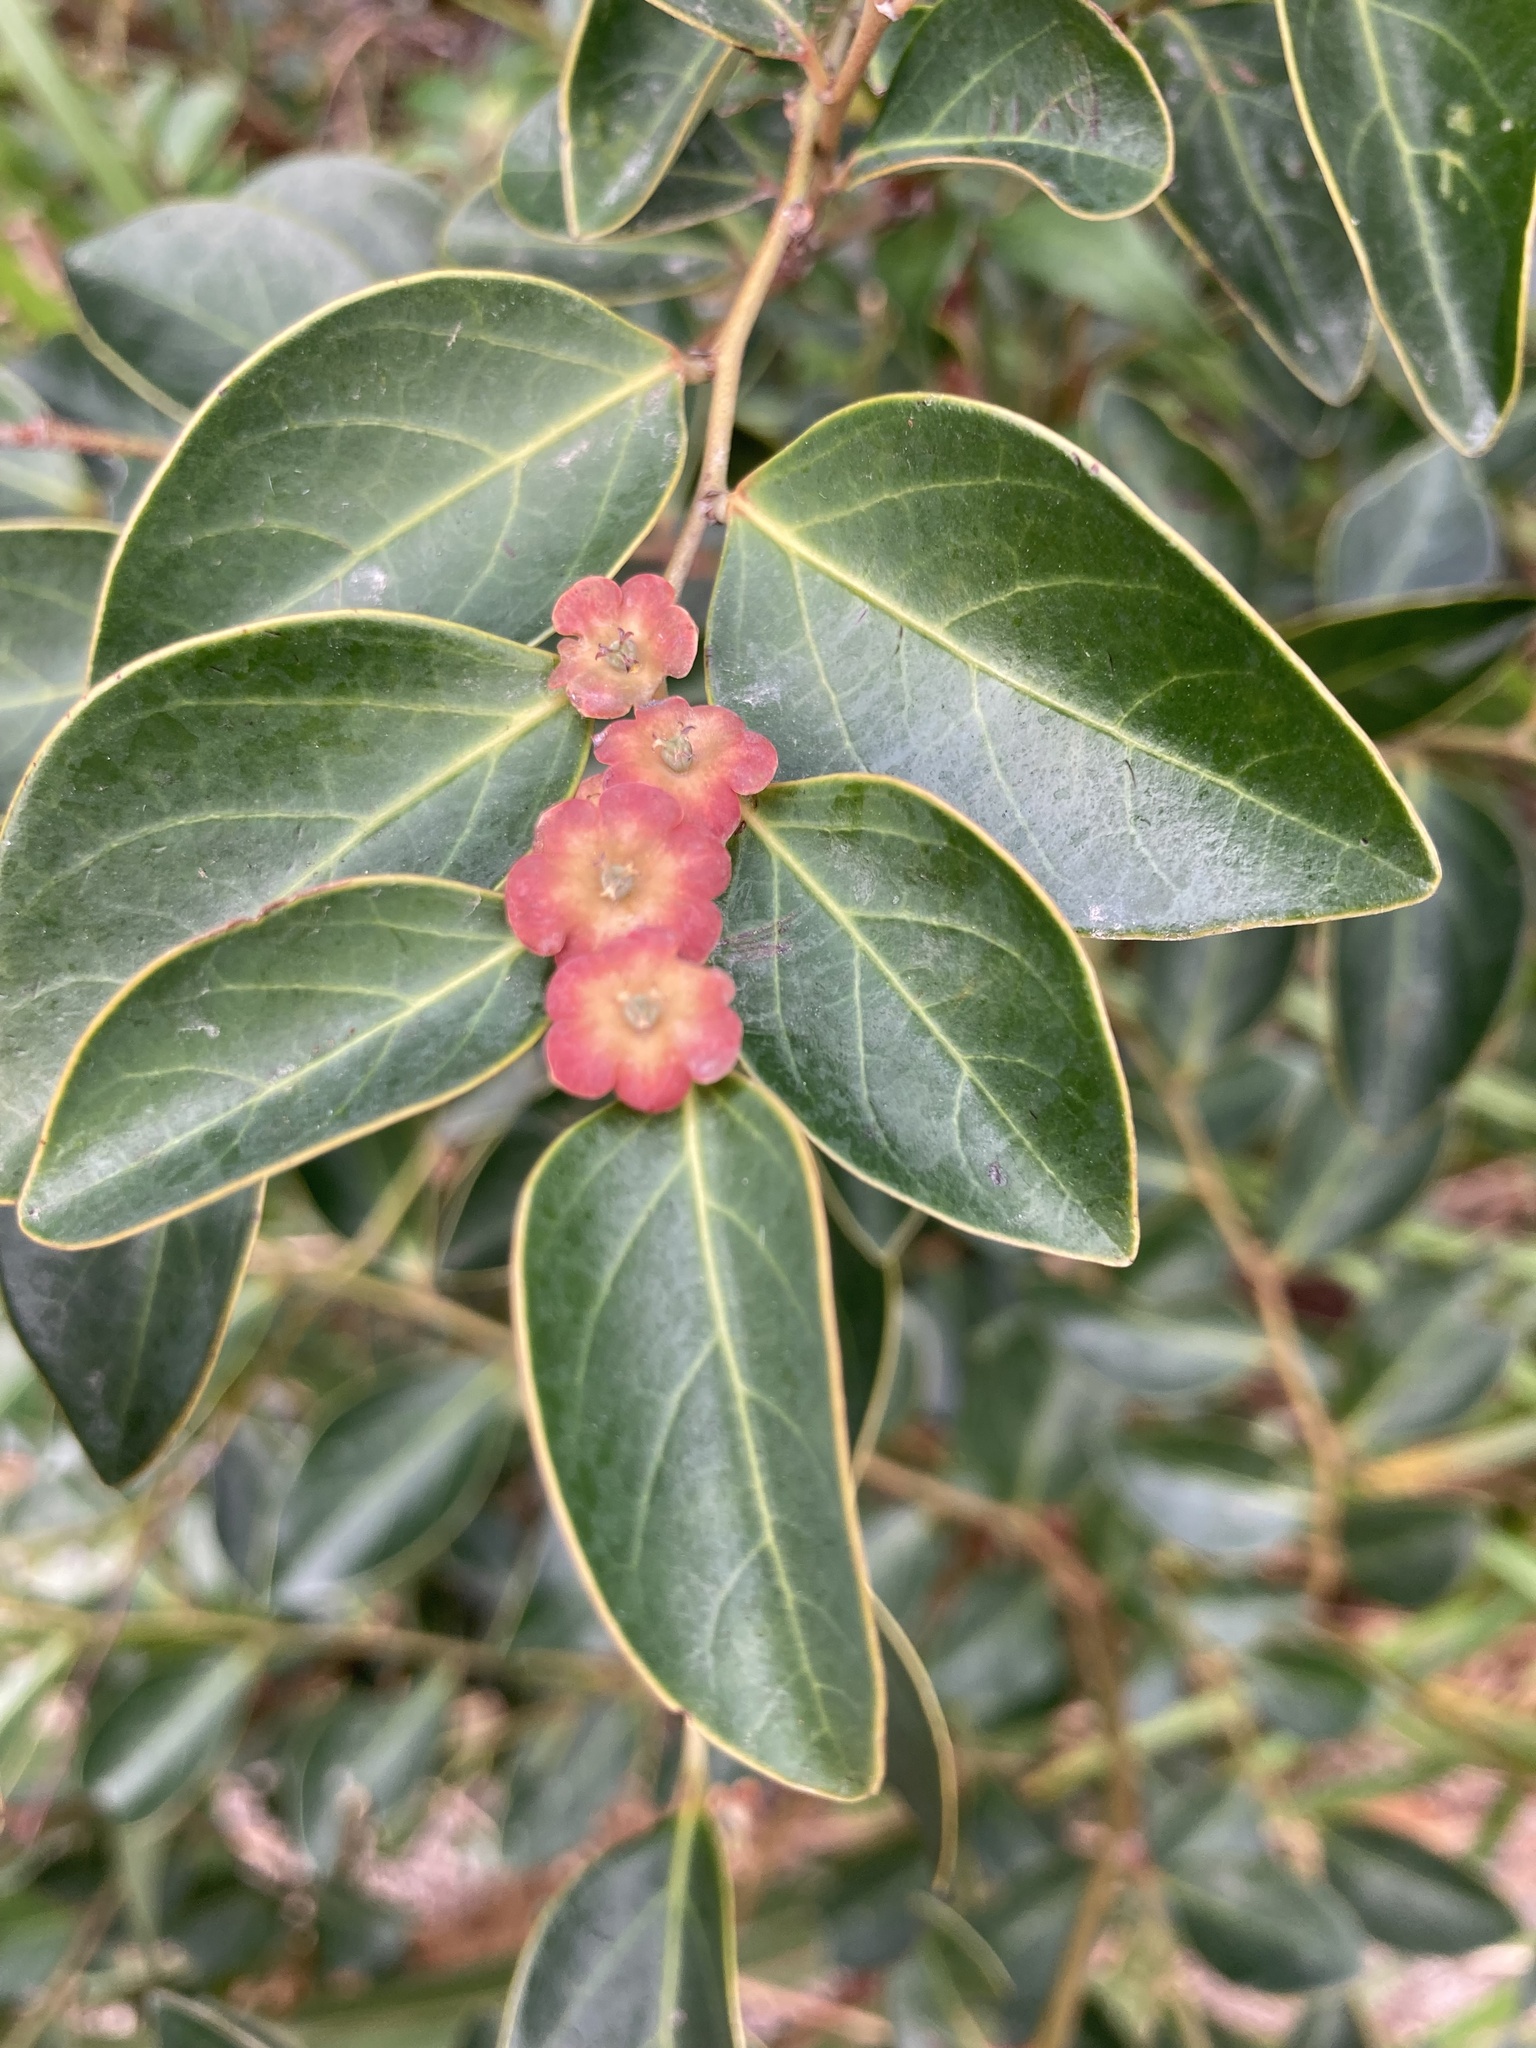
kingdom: Plantae
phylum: Tracheophyta
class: Magnoliopsida
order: Malpighiales
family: Phyllanthaceae
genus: Breynia
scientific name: Breynia fruticosa
